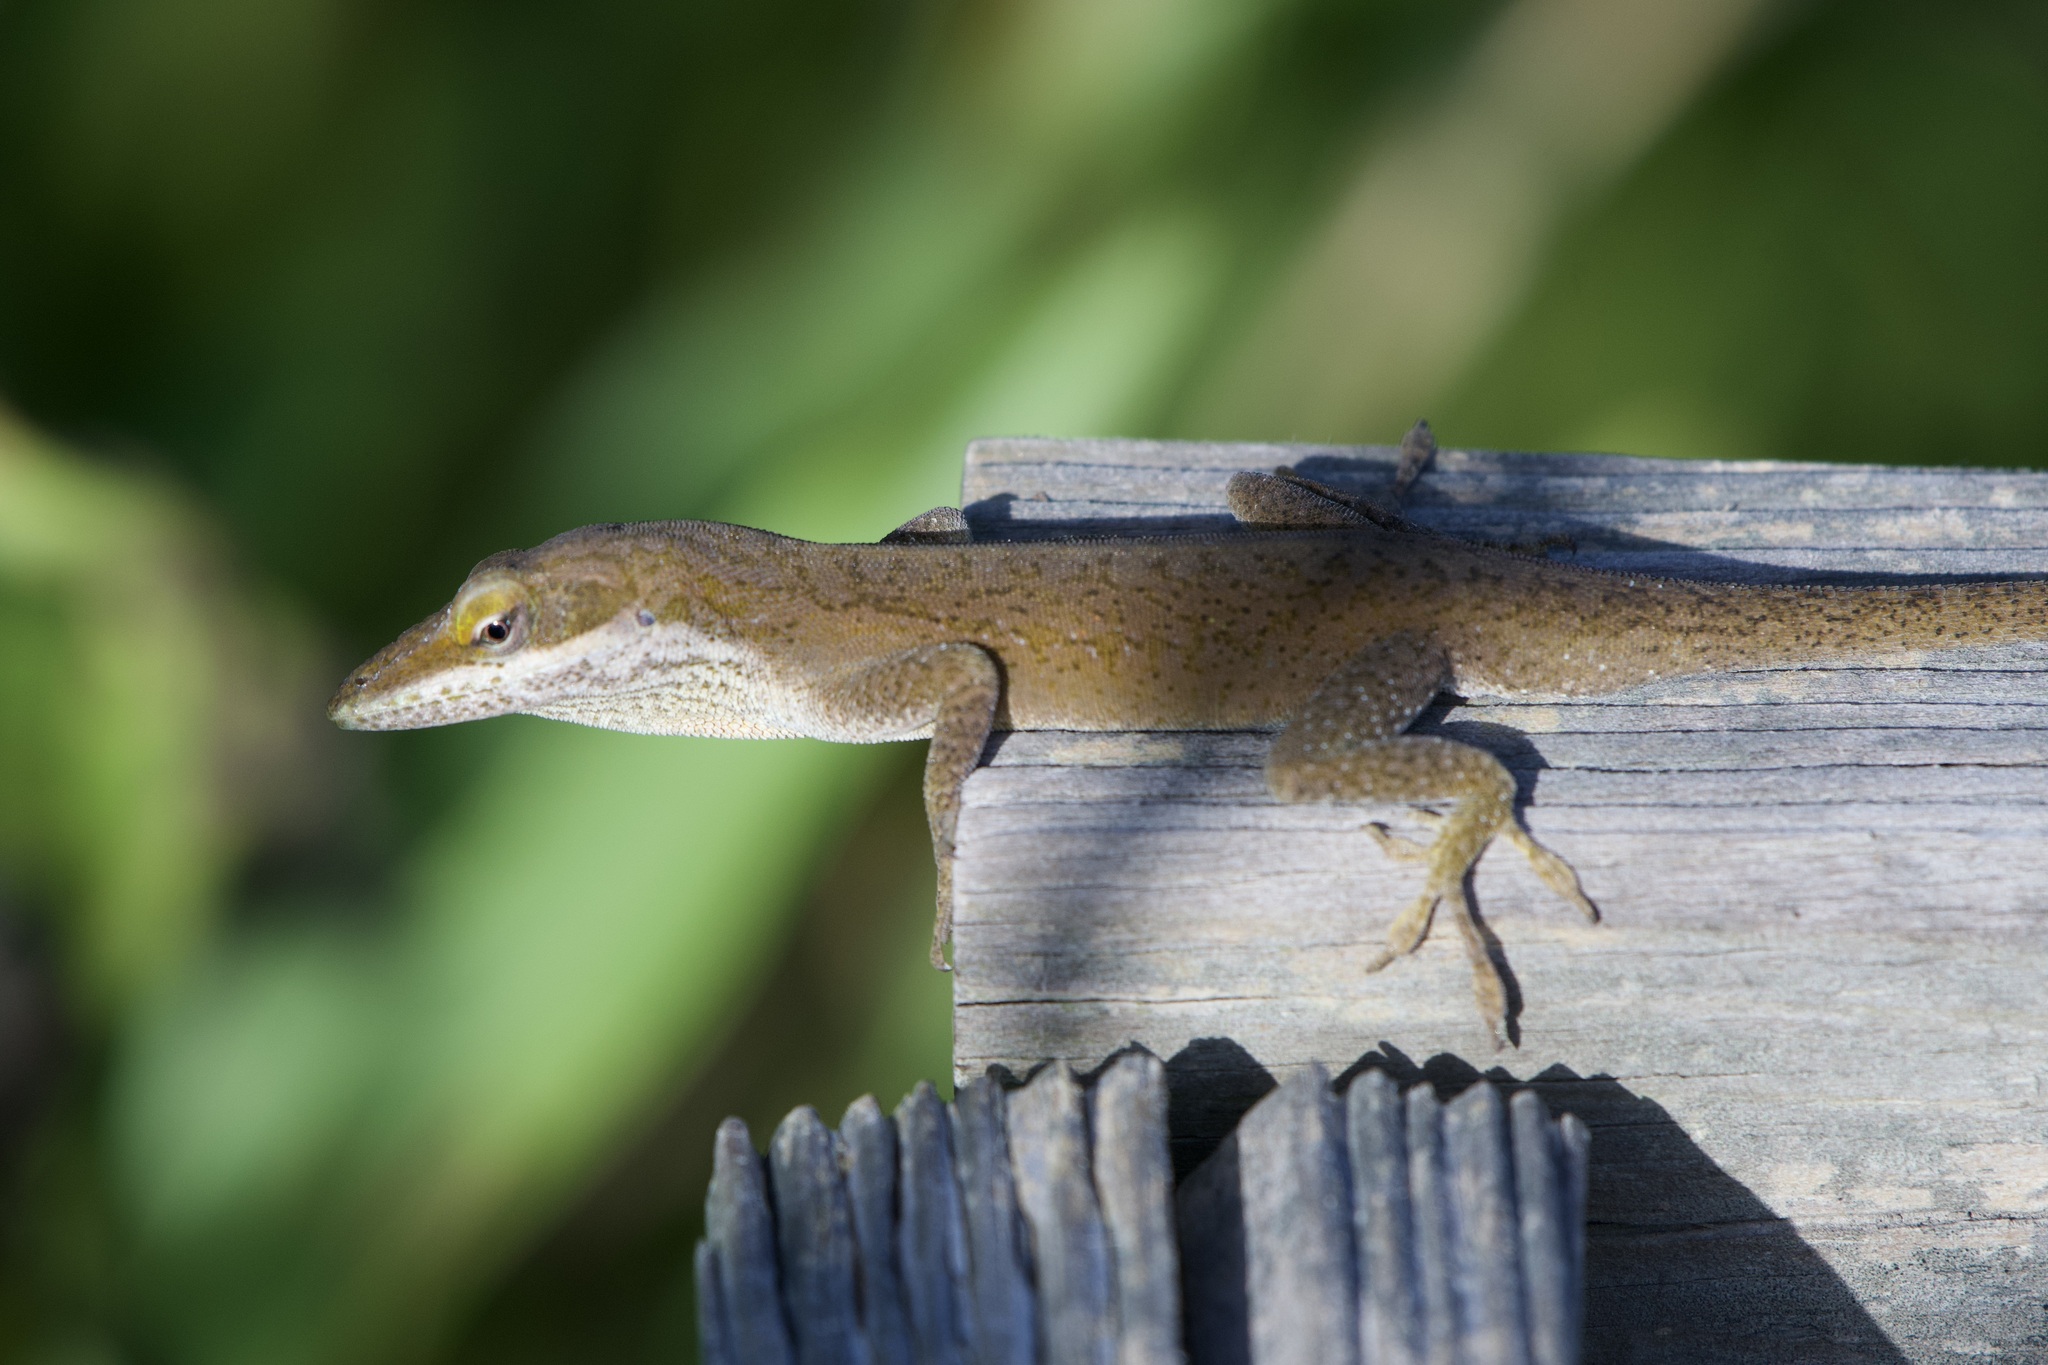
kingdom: Animalia
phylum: Chordata
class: Squamata
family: Dactyloidae
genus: Anolis
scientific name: Anolis carolinensis
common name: Green anole
